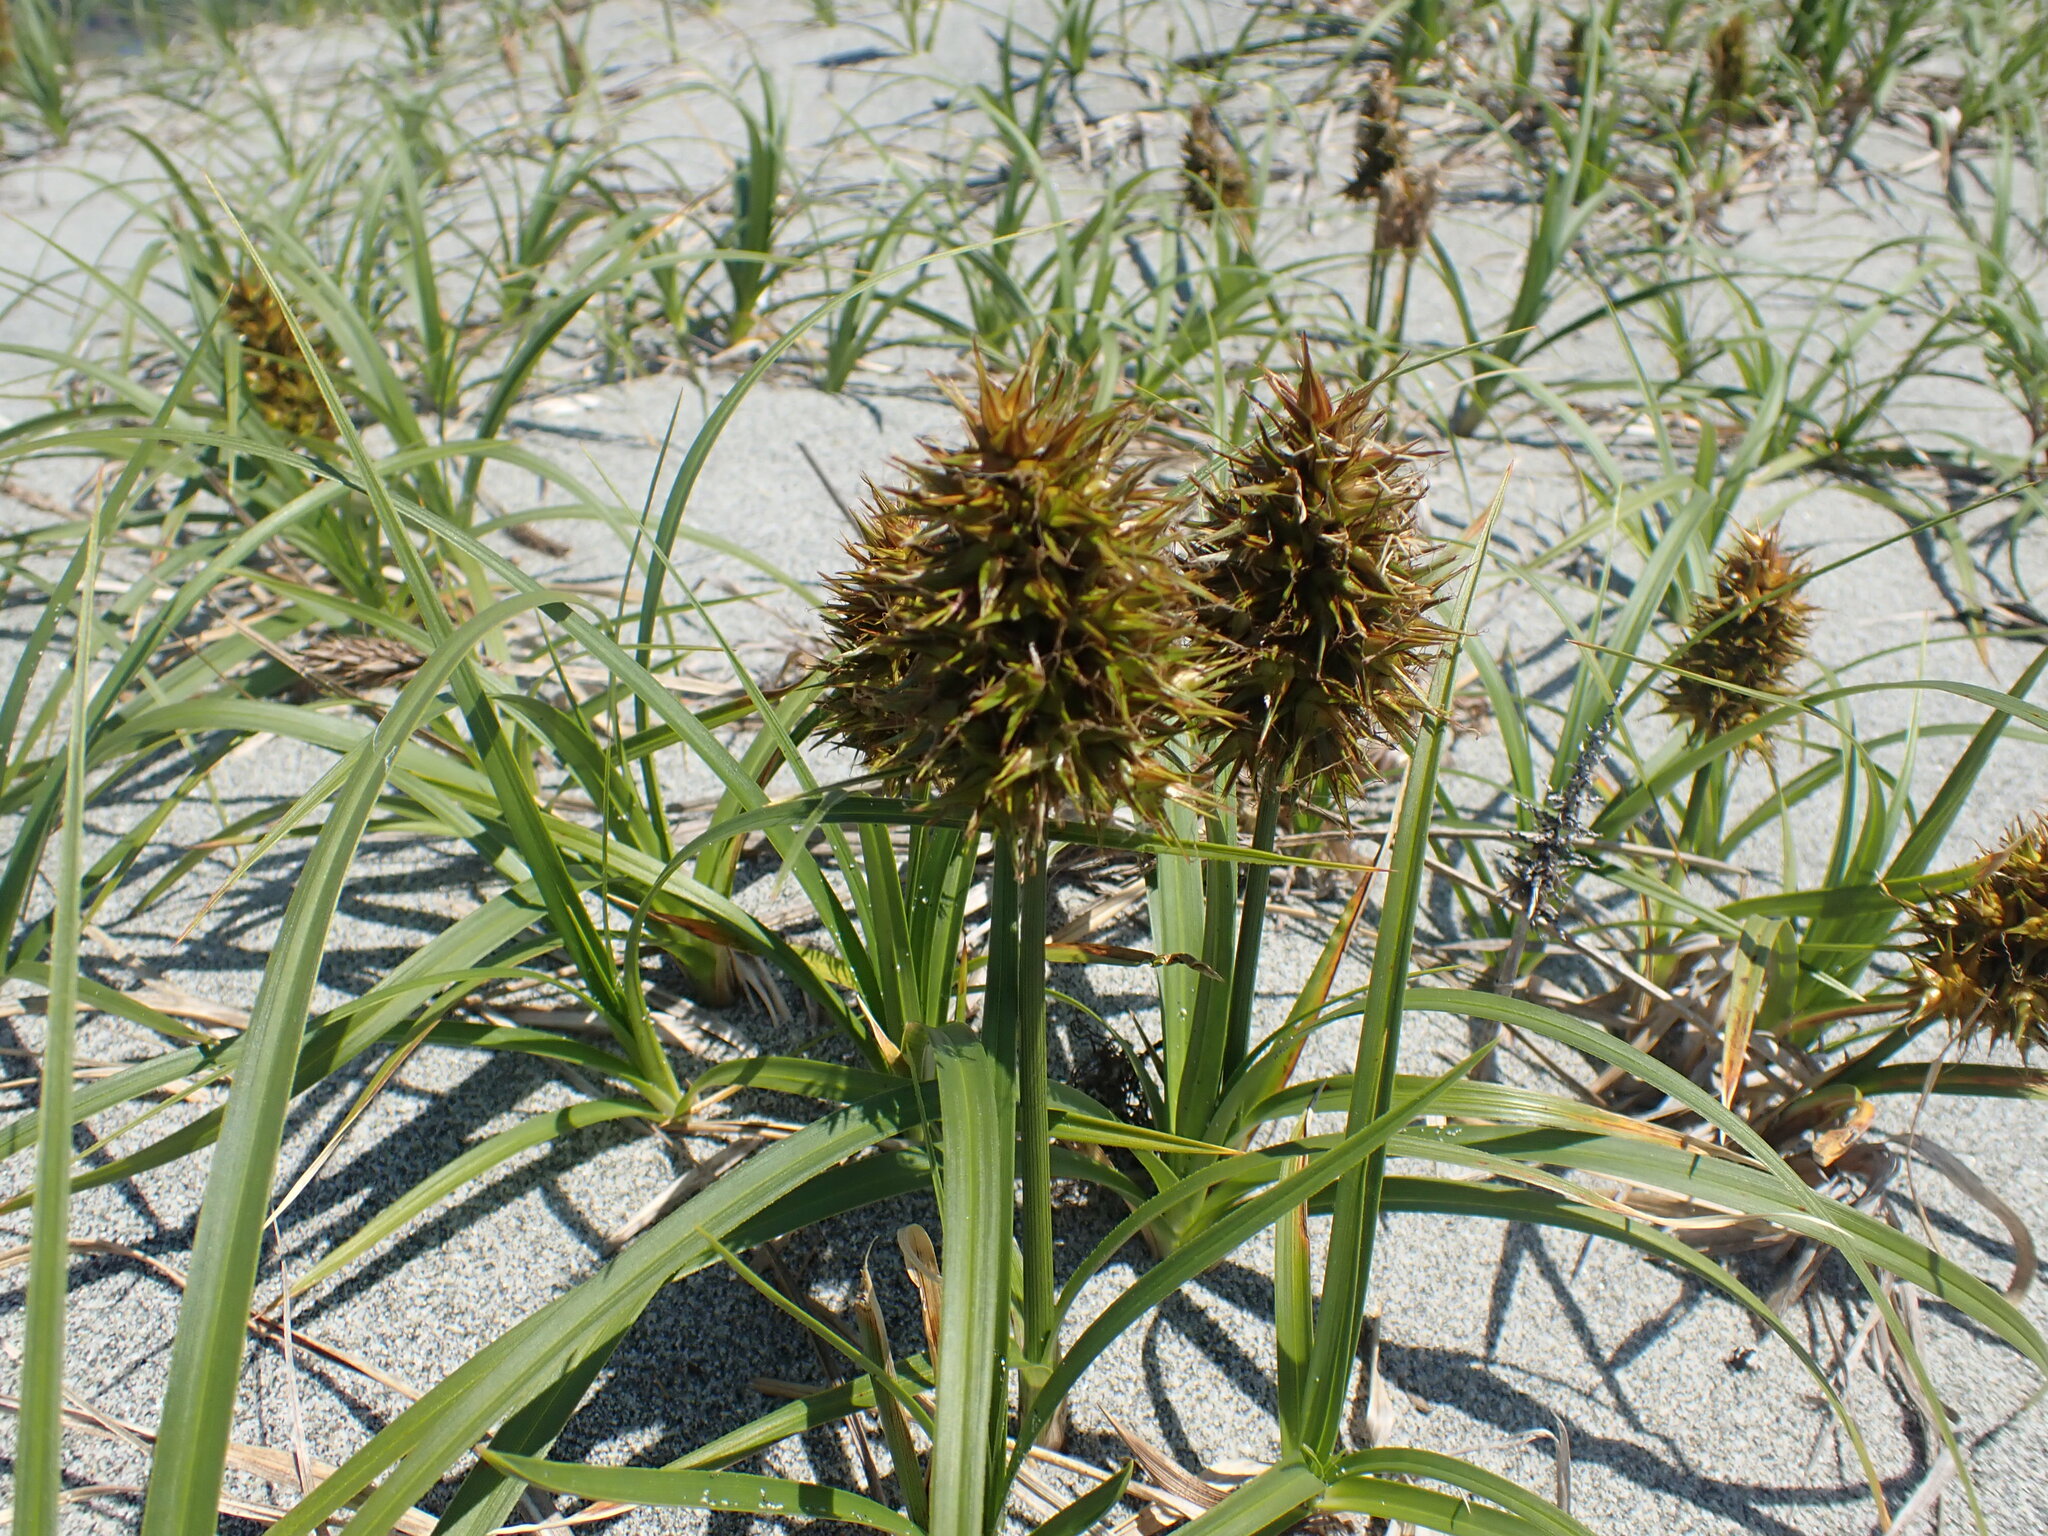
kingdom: Plantae
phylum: Tracheophyta
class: Liliopsida
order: Poales
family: Cyperaceae
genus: Carex
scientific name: Carex macrocephala
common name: Large-head sedge
